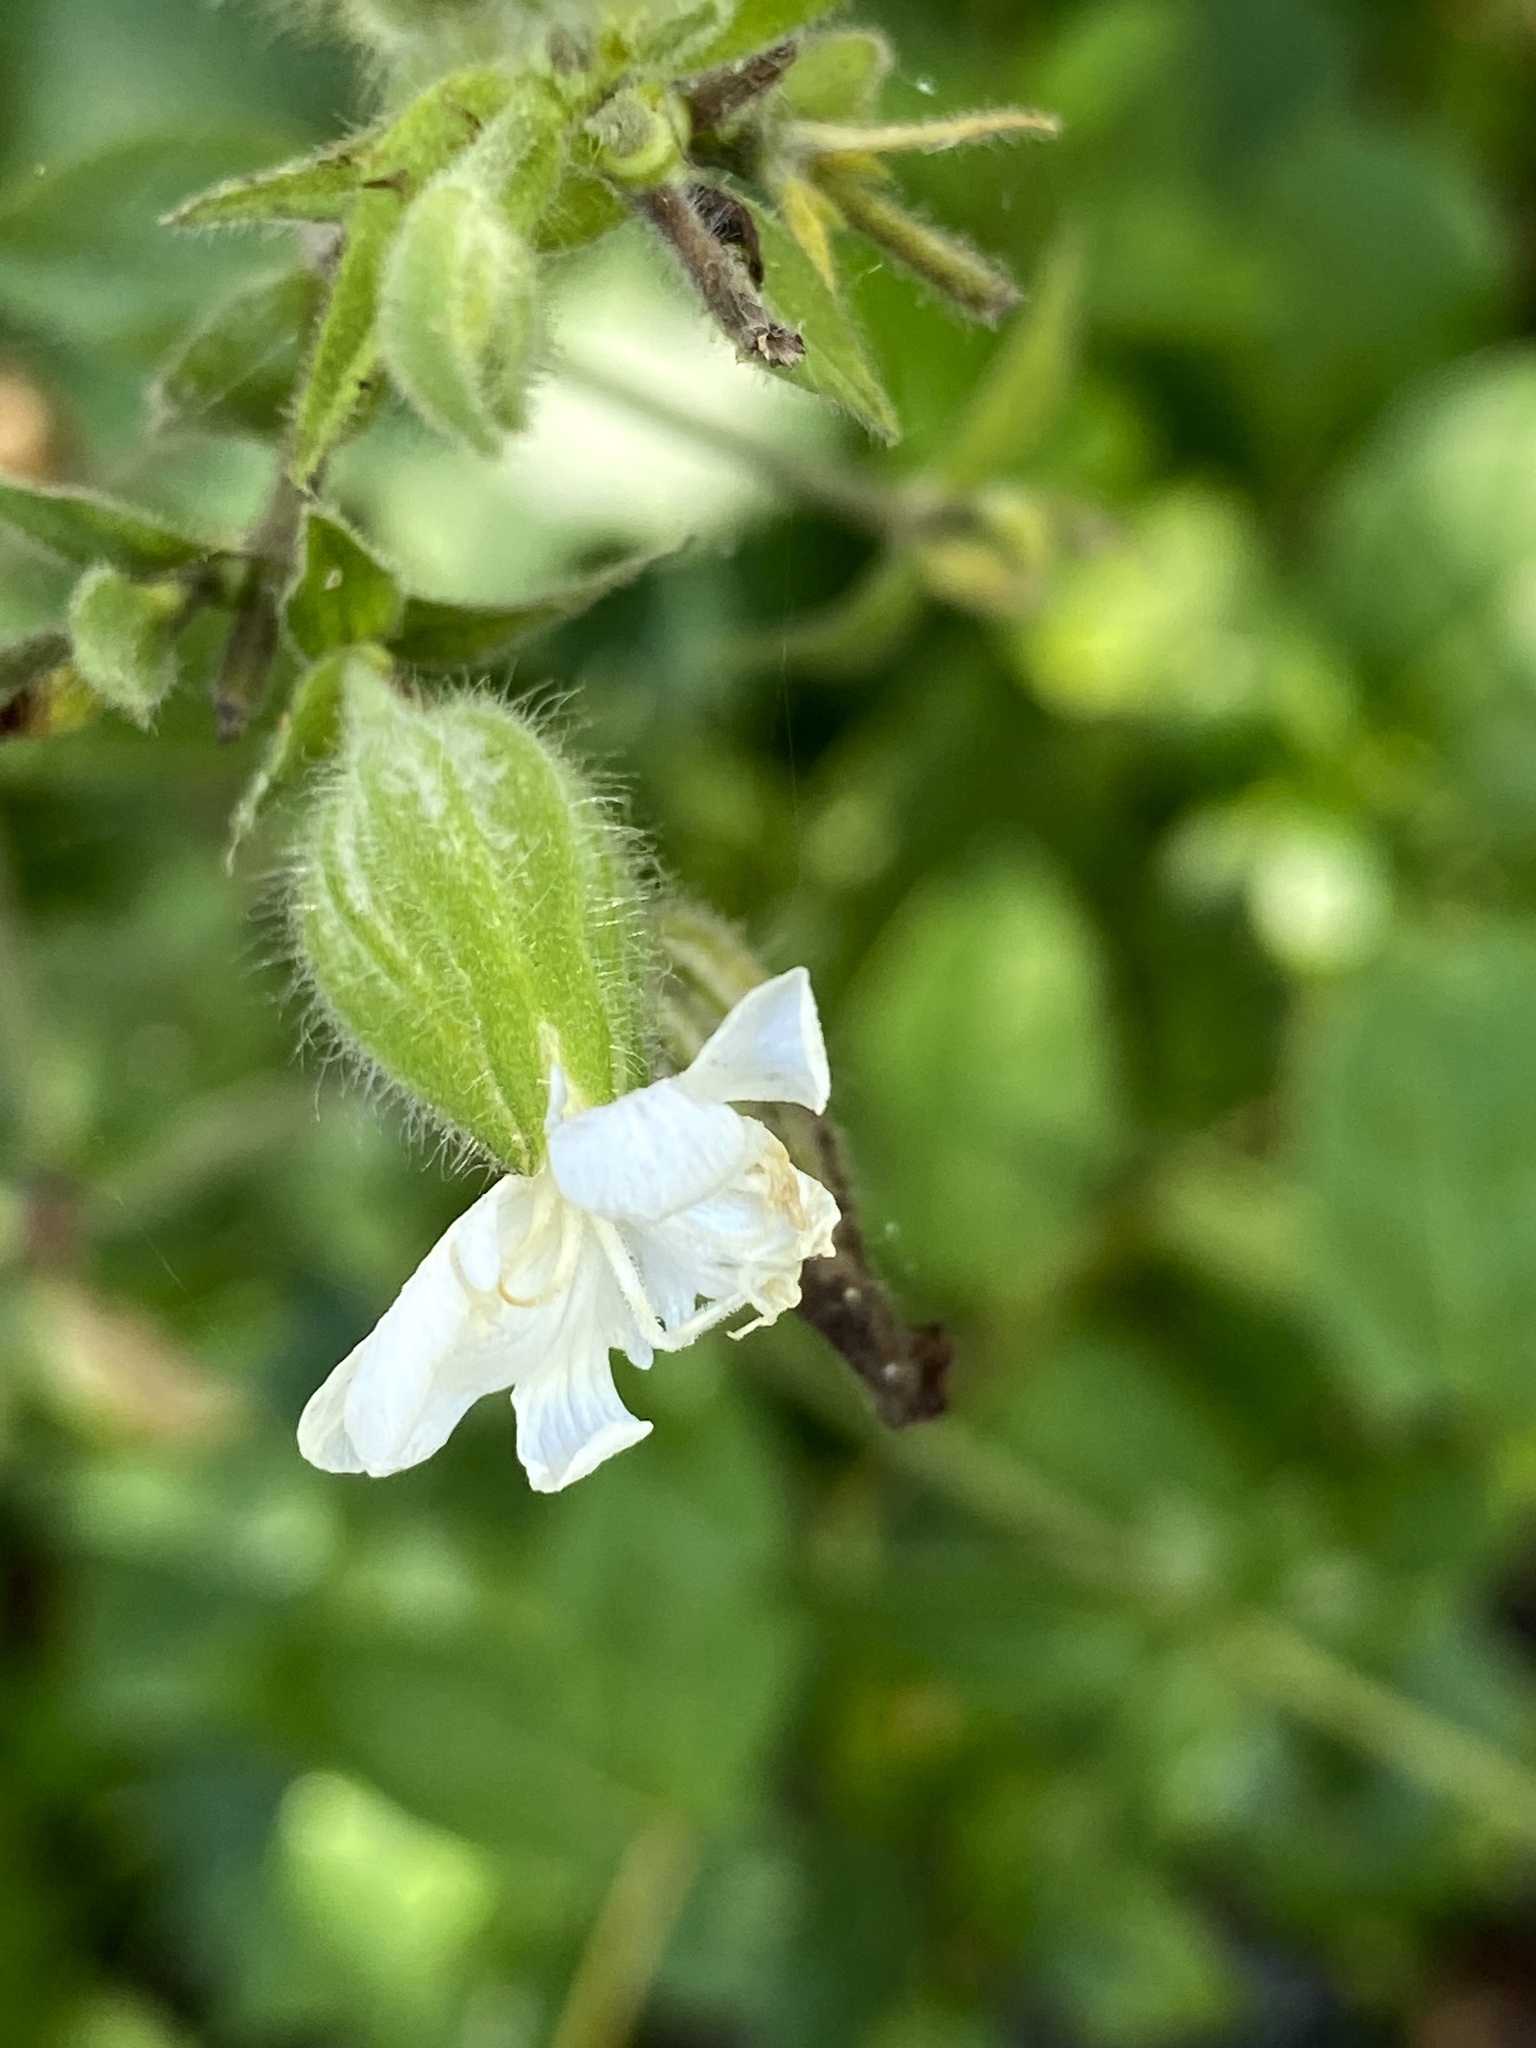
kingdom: Plantae
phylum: Tracheophyta
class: Magnoliopsida
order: Caryophyllales
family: Caryophyllaceae
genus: Silene
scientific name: Silene latifolia
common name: White campion
